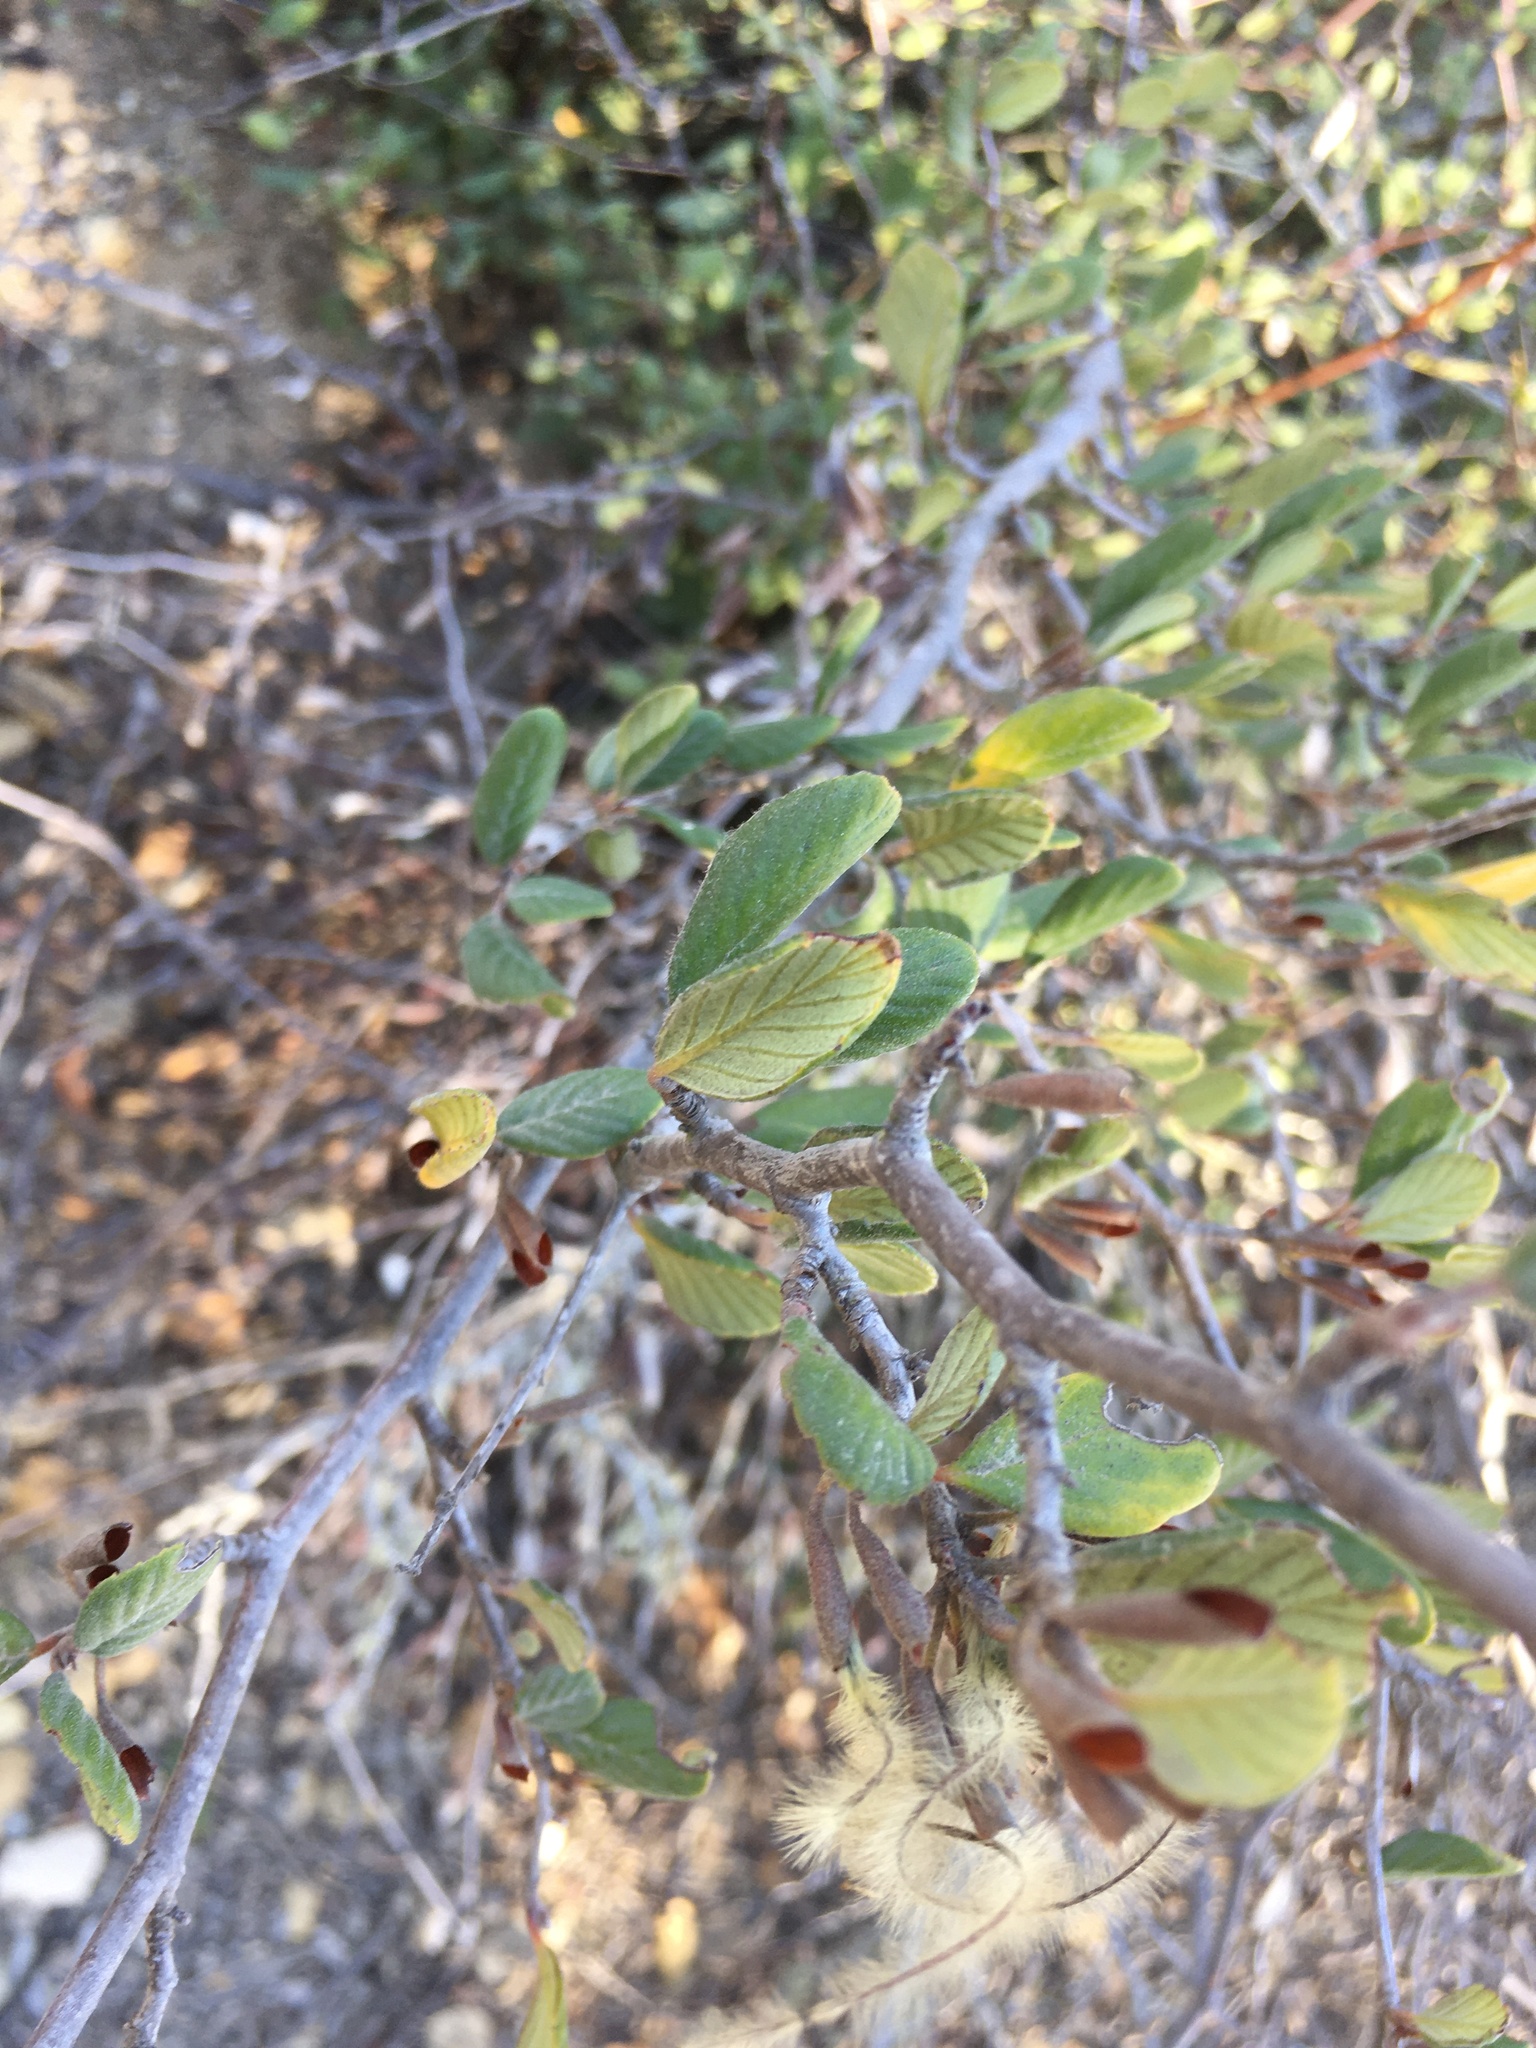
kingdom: Plantae
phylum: Tracheophyta
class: Magnoliopsida
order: Rosales
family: Rosaceae
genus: Cercocarpus
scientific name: Cercocarpus betuloides
